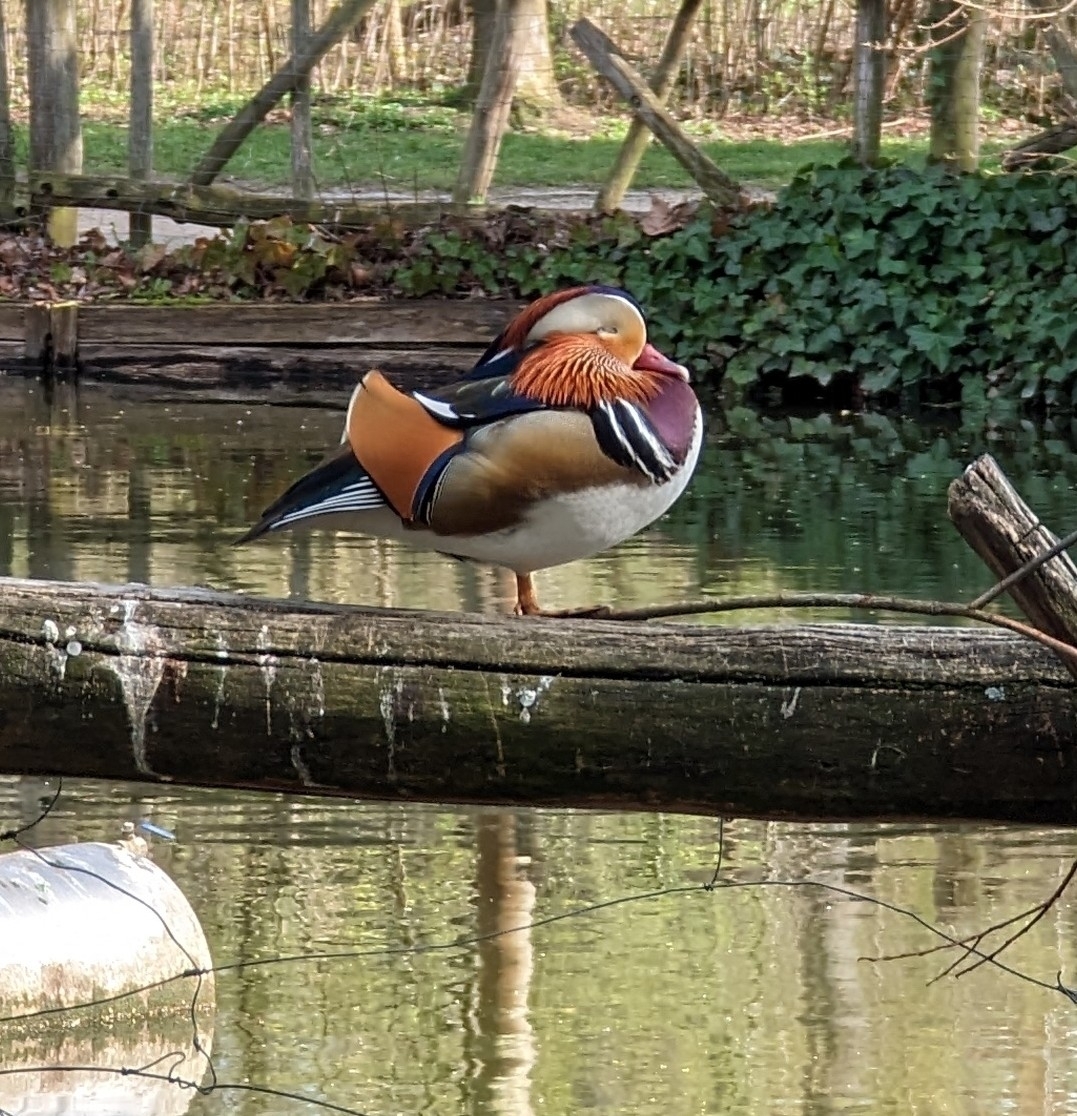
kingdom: Animalia
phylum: Chordata
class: Aves
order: Anseriformes
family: Anatidae
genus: Aix
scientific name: Aix galericulata
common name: Mandarin duck
